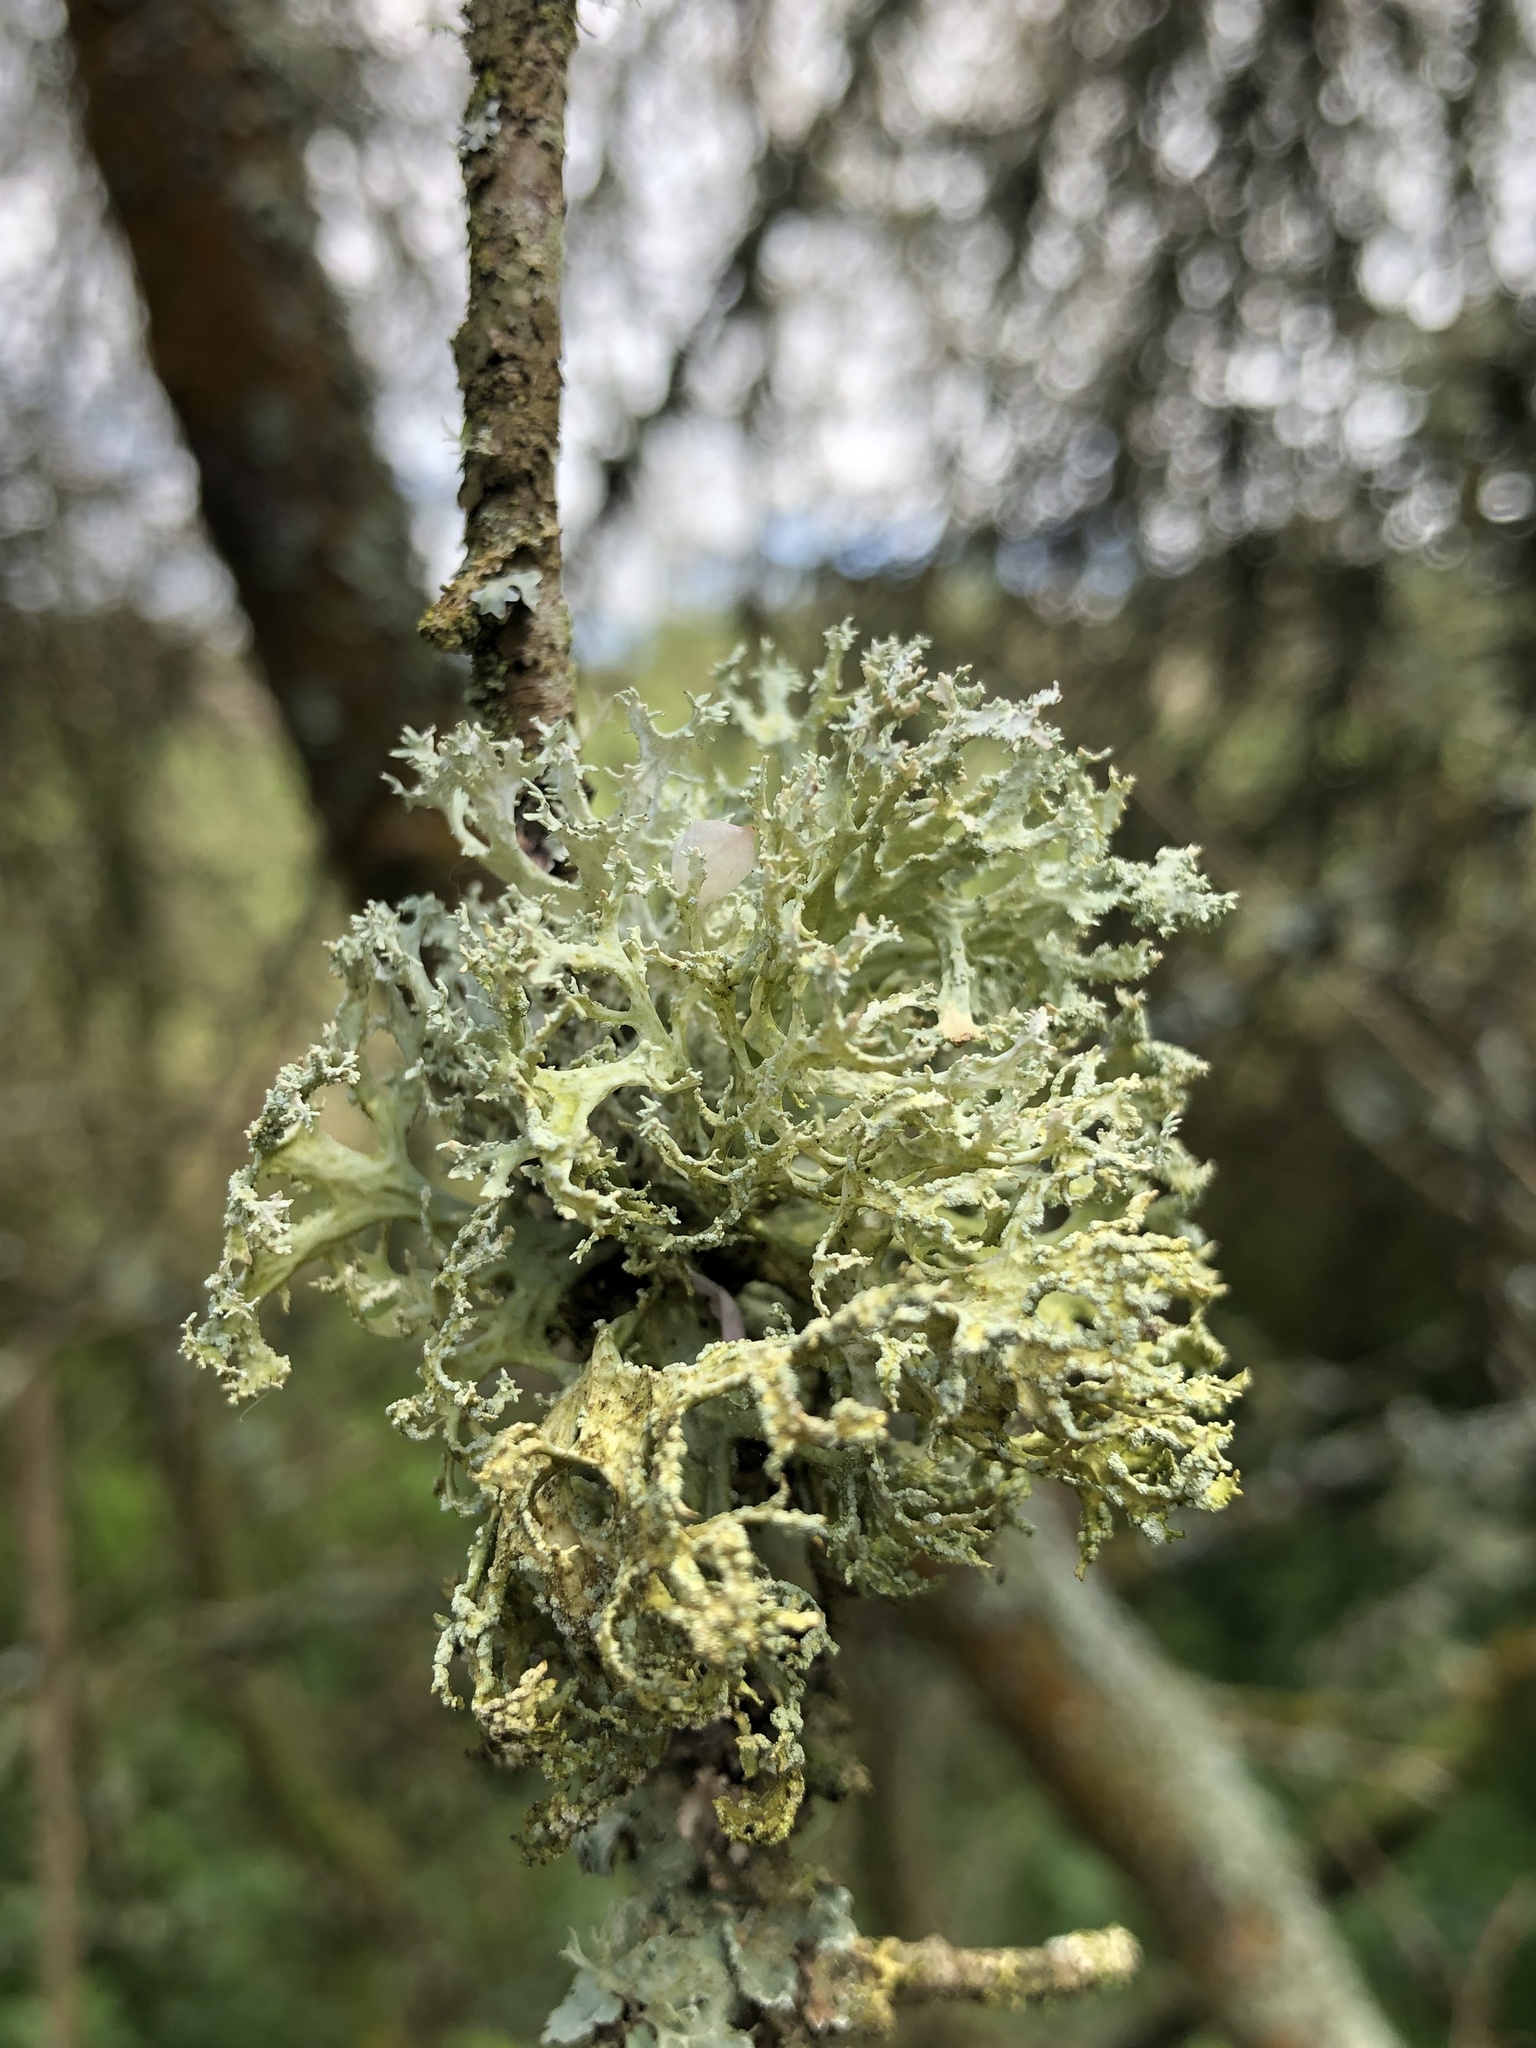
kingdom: Fungi
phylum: Ascomycota
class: Lecanoromycetes
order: Lecanorales
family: Parmeliaceae
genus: Evernia
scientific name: Evernia prunastri
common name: Oak moss
